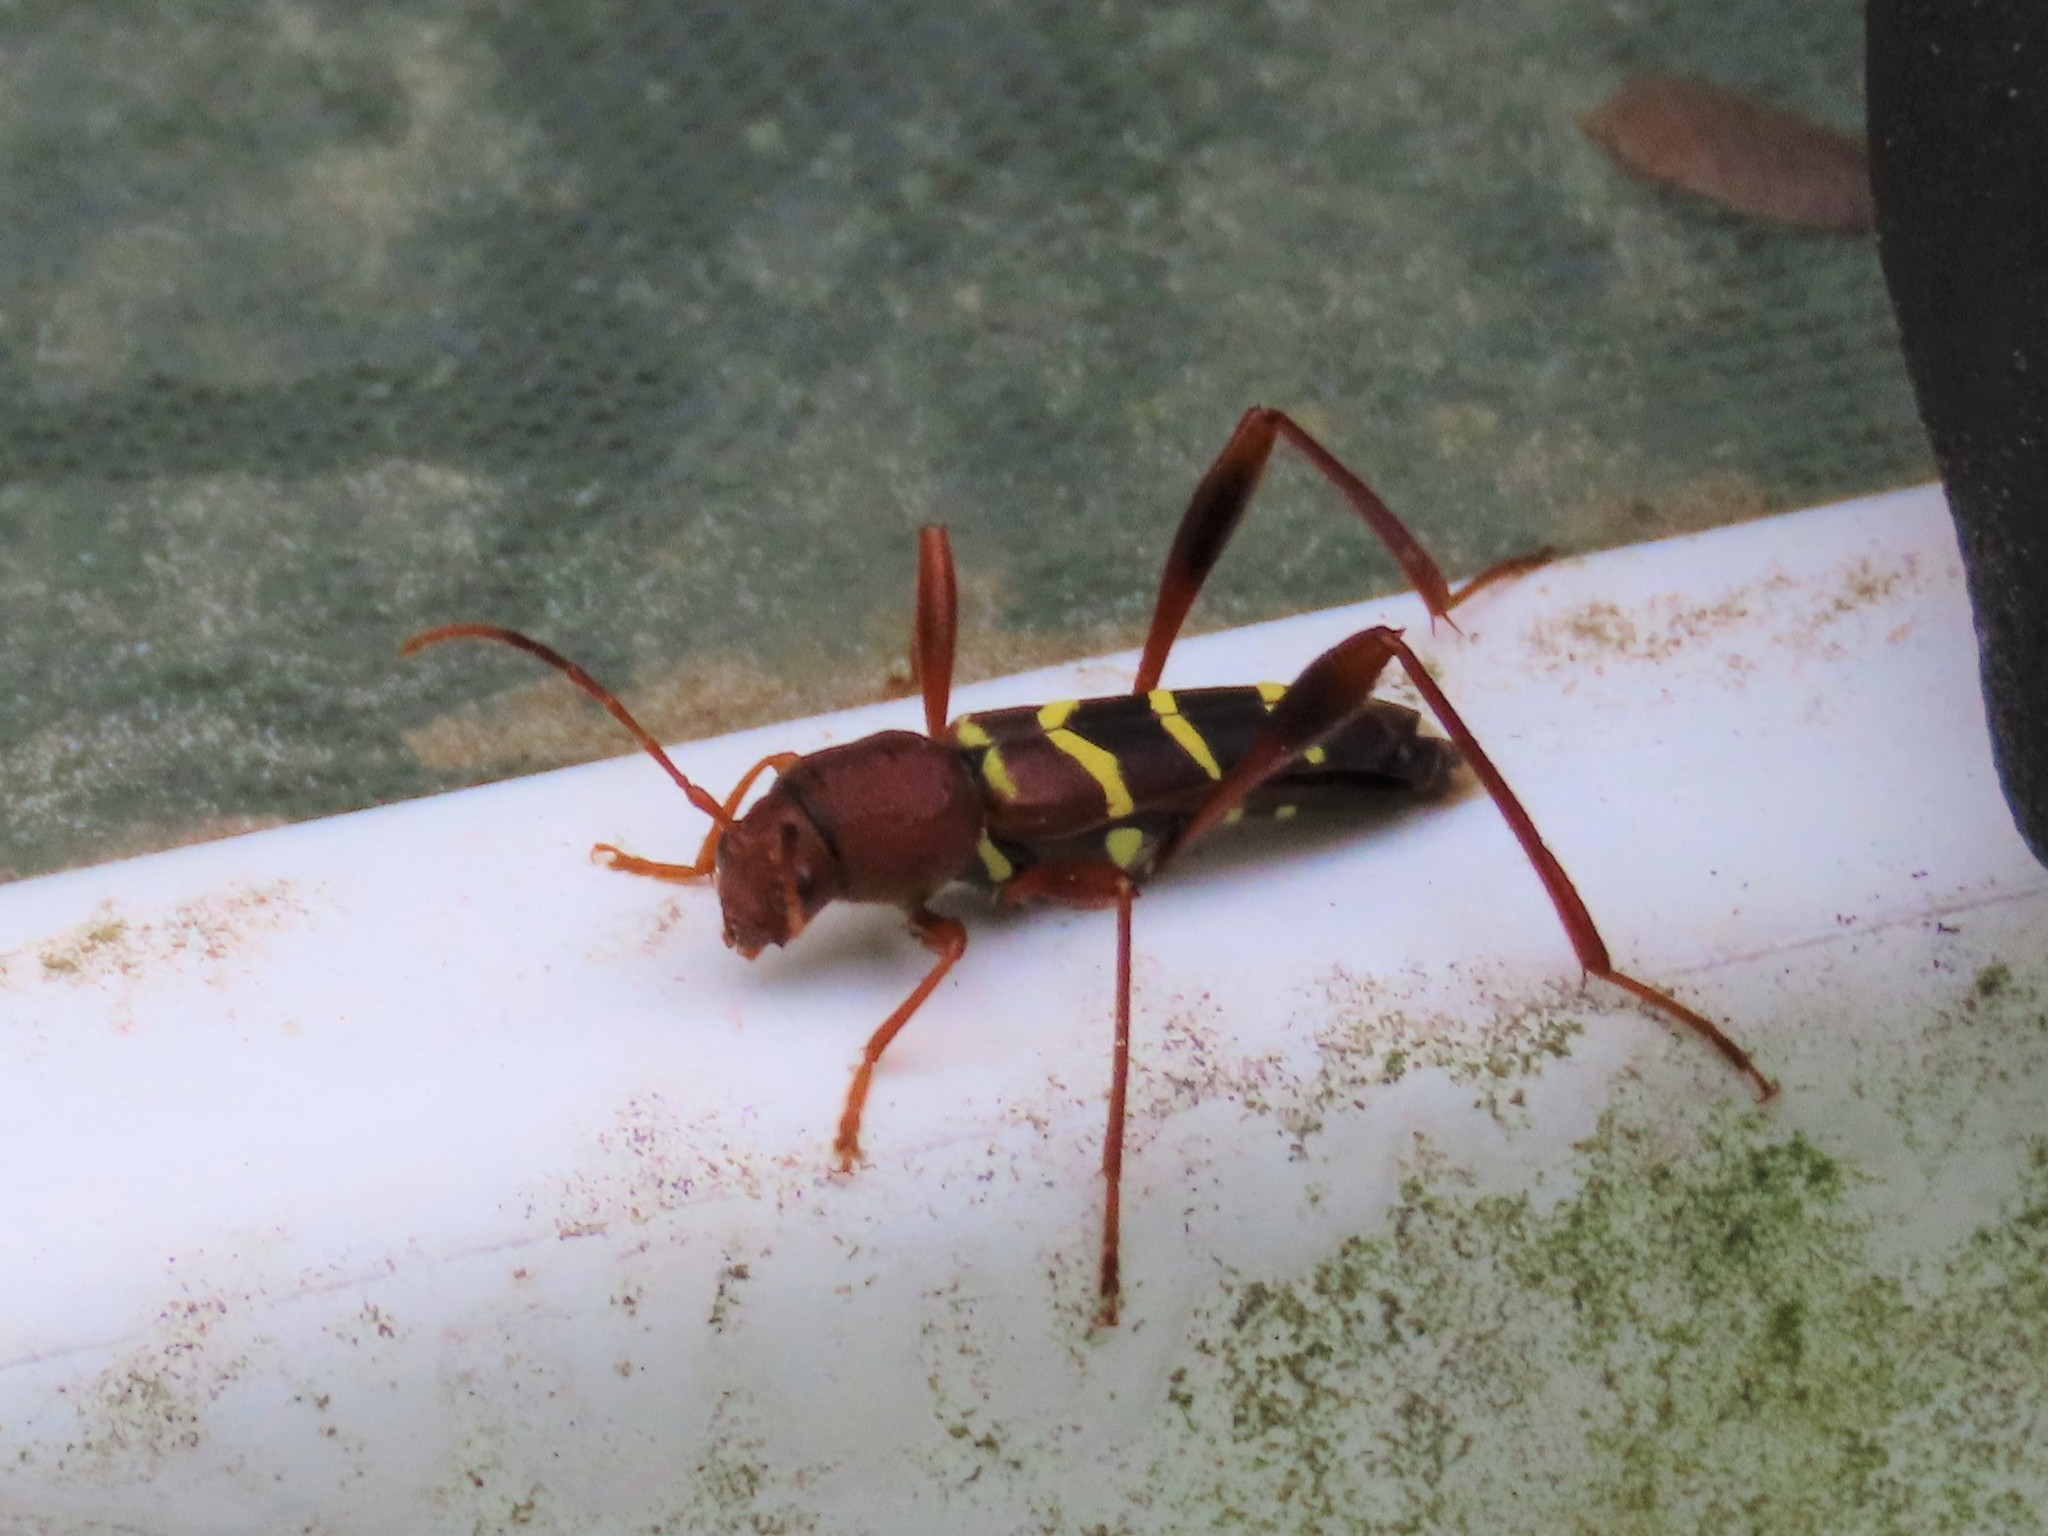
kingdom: Animalia
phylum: Arthropoda
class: Insecta
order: Coleoptera
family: Cerambycidae
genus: Neoclytus
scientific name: Neoclytus acuminatus
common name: Read-headed ash borer
